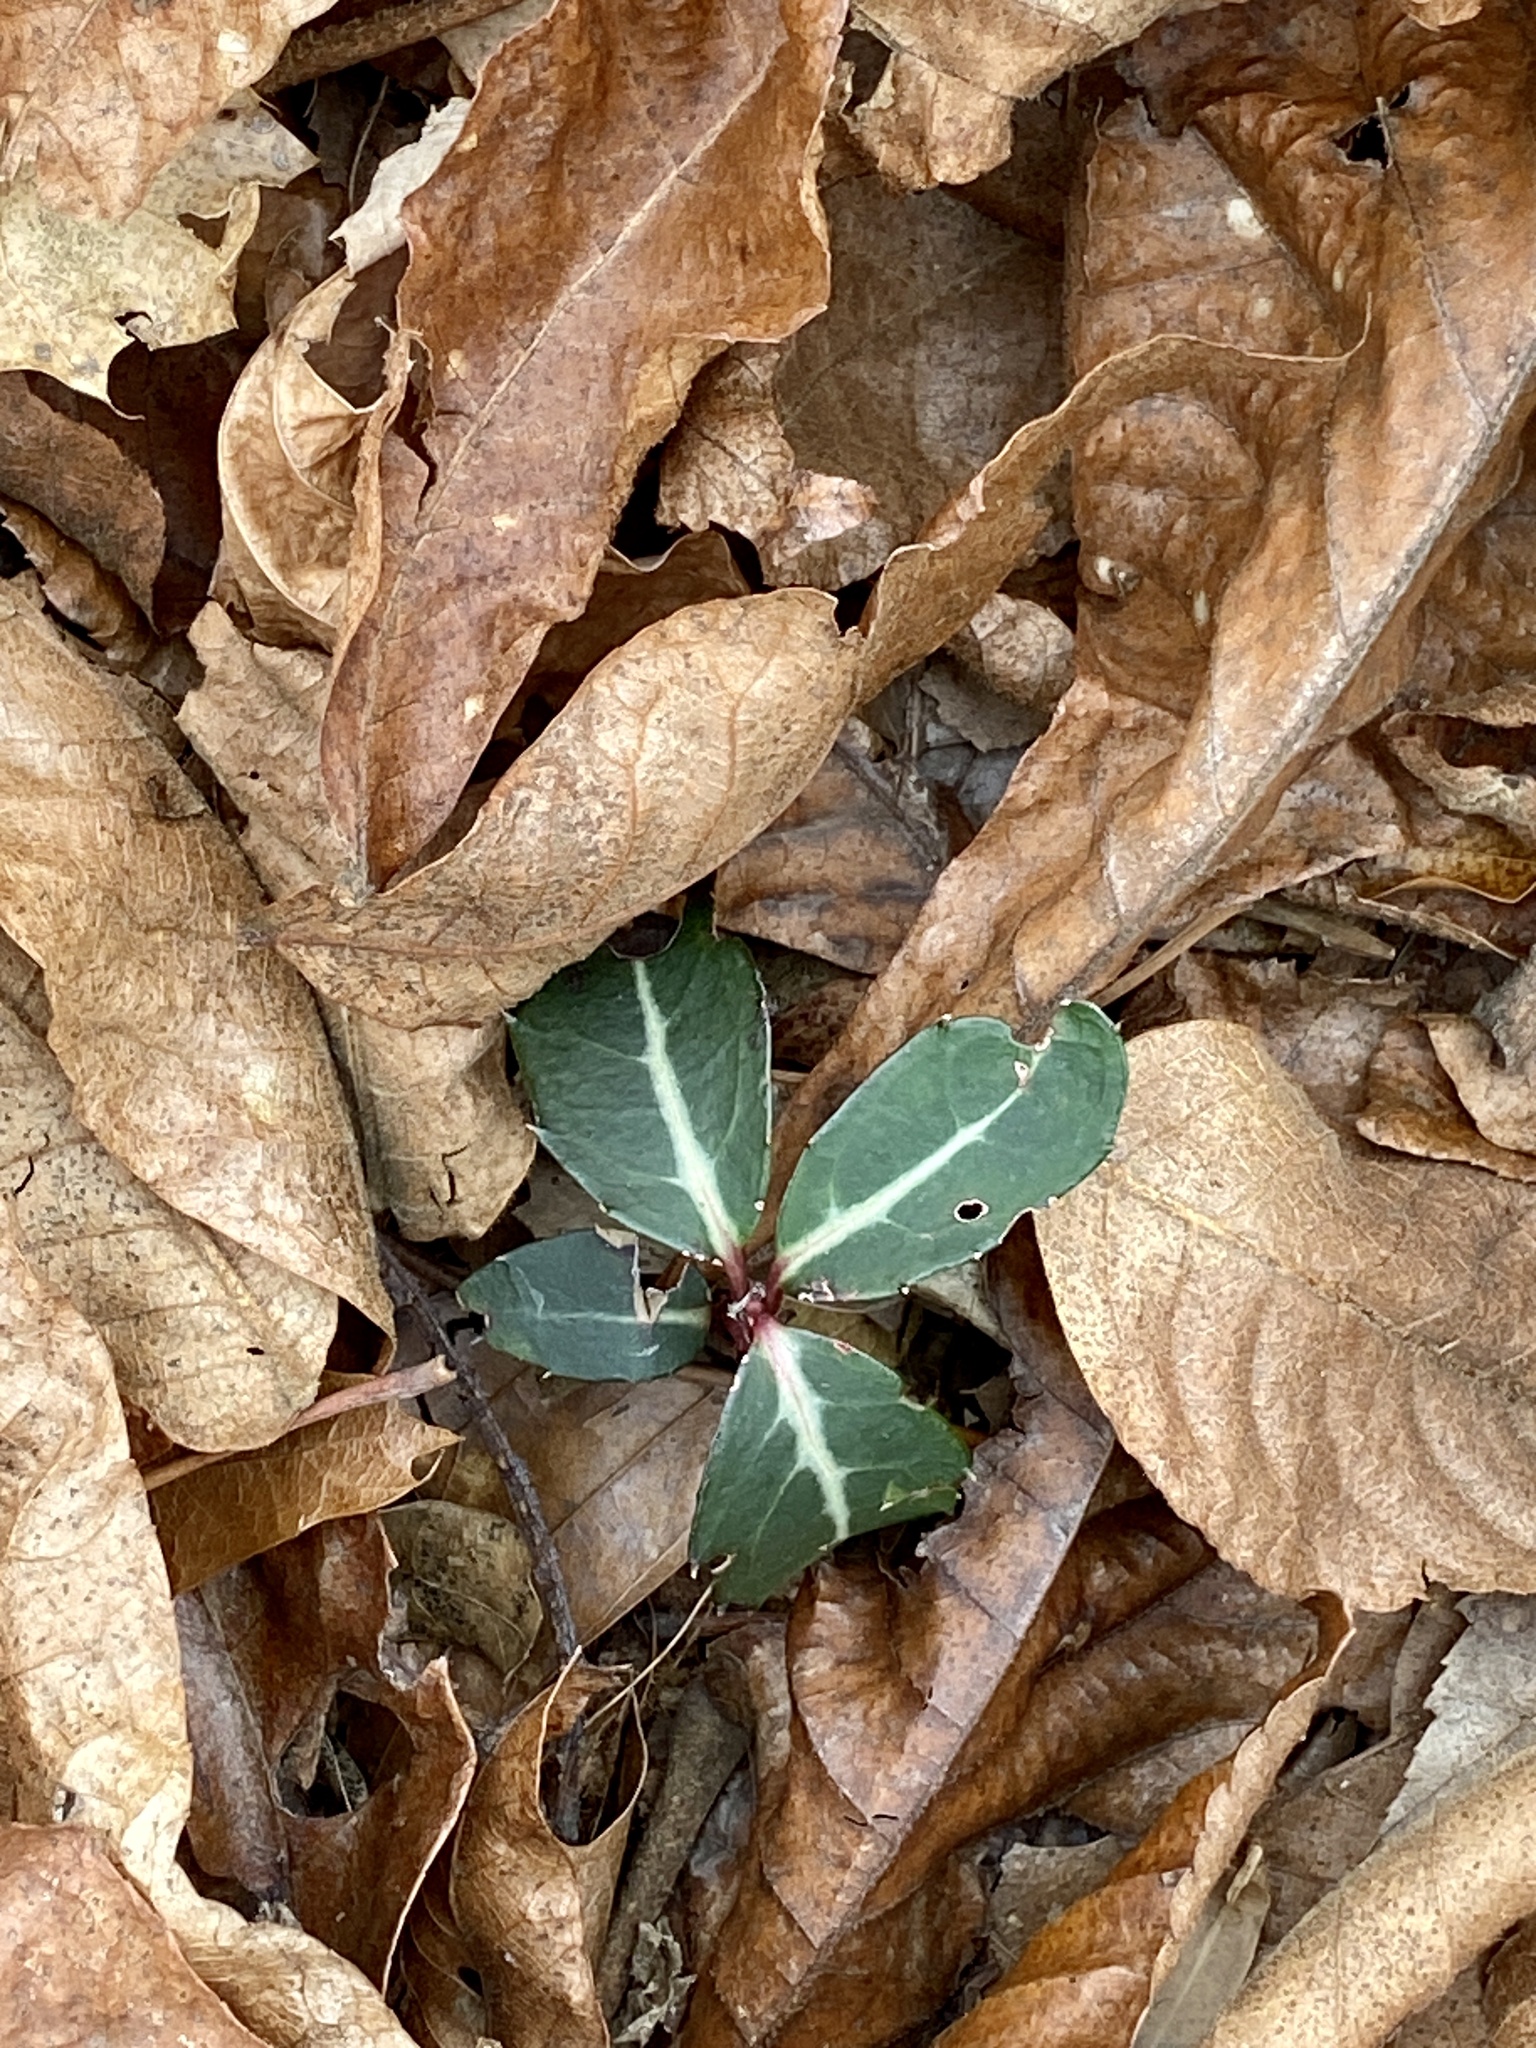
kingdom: Plantae
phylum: Tracheophyta
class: Magnoliopsida
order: Ericales
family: Ericaceae
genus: Chimaphila
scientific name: Chimaphila maculata
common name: Spotted pipsissewa
